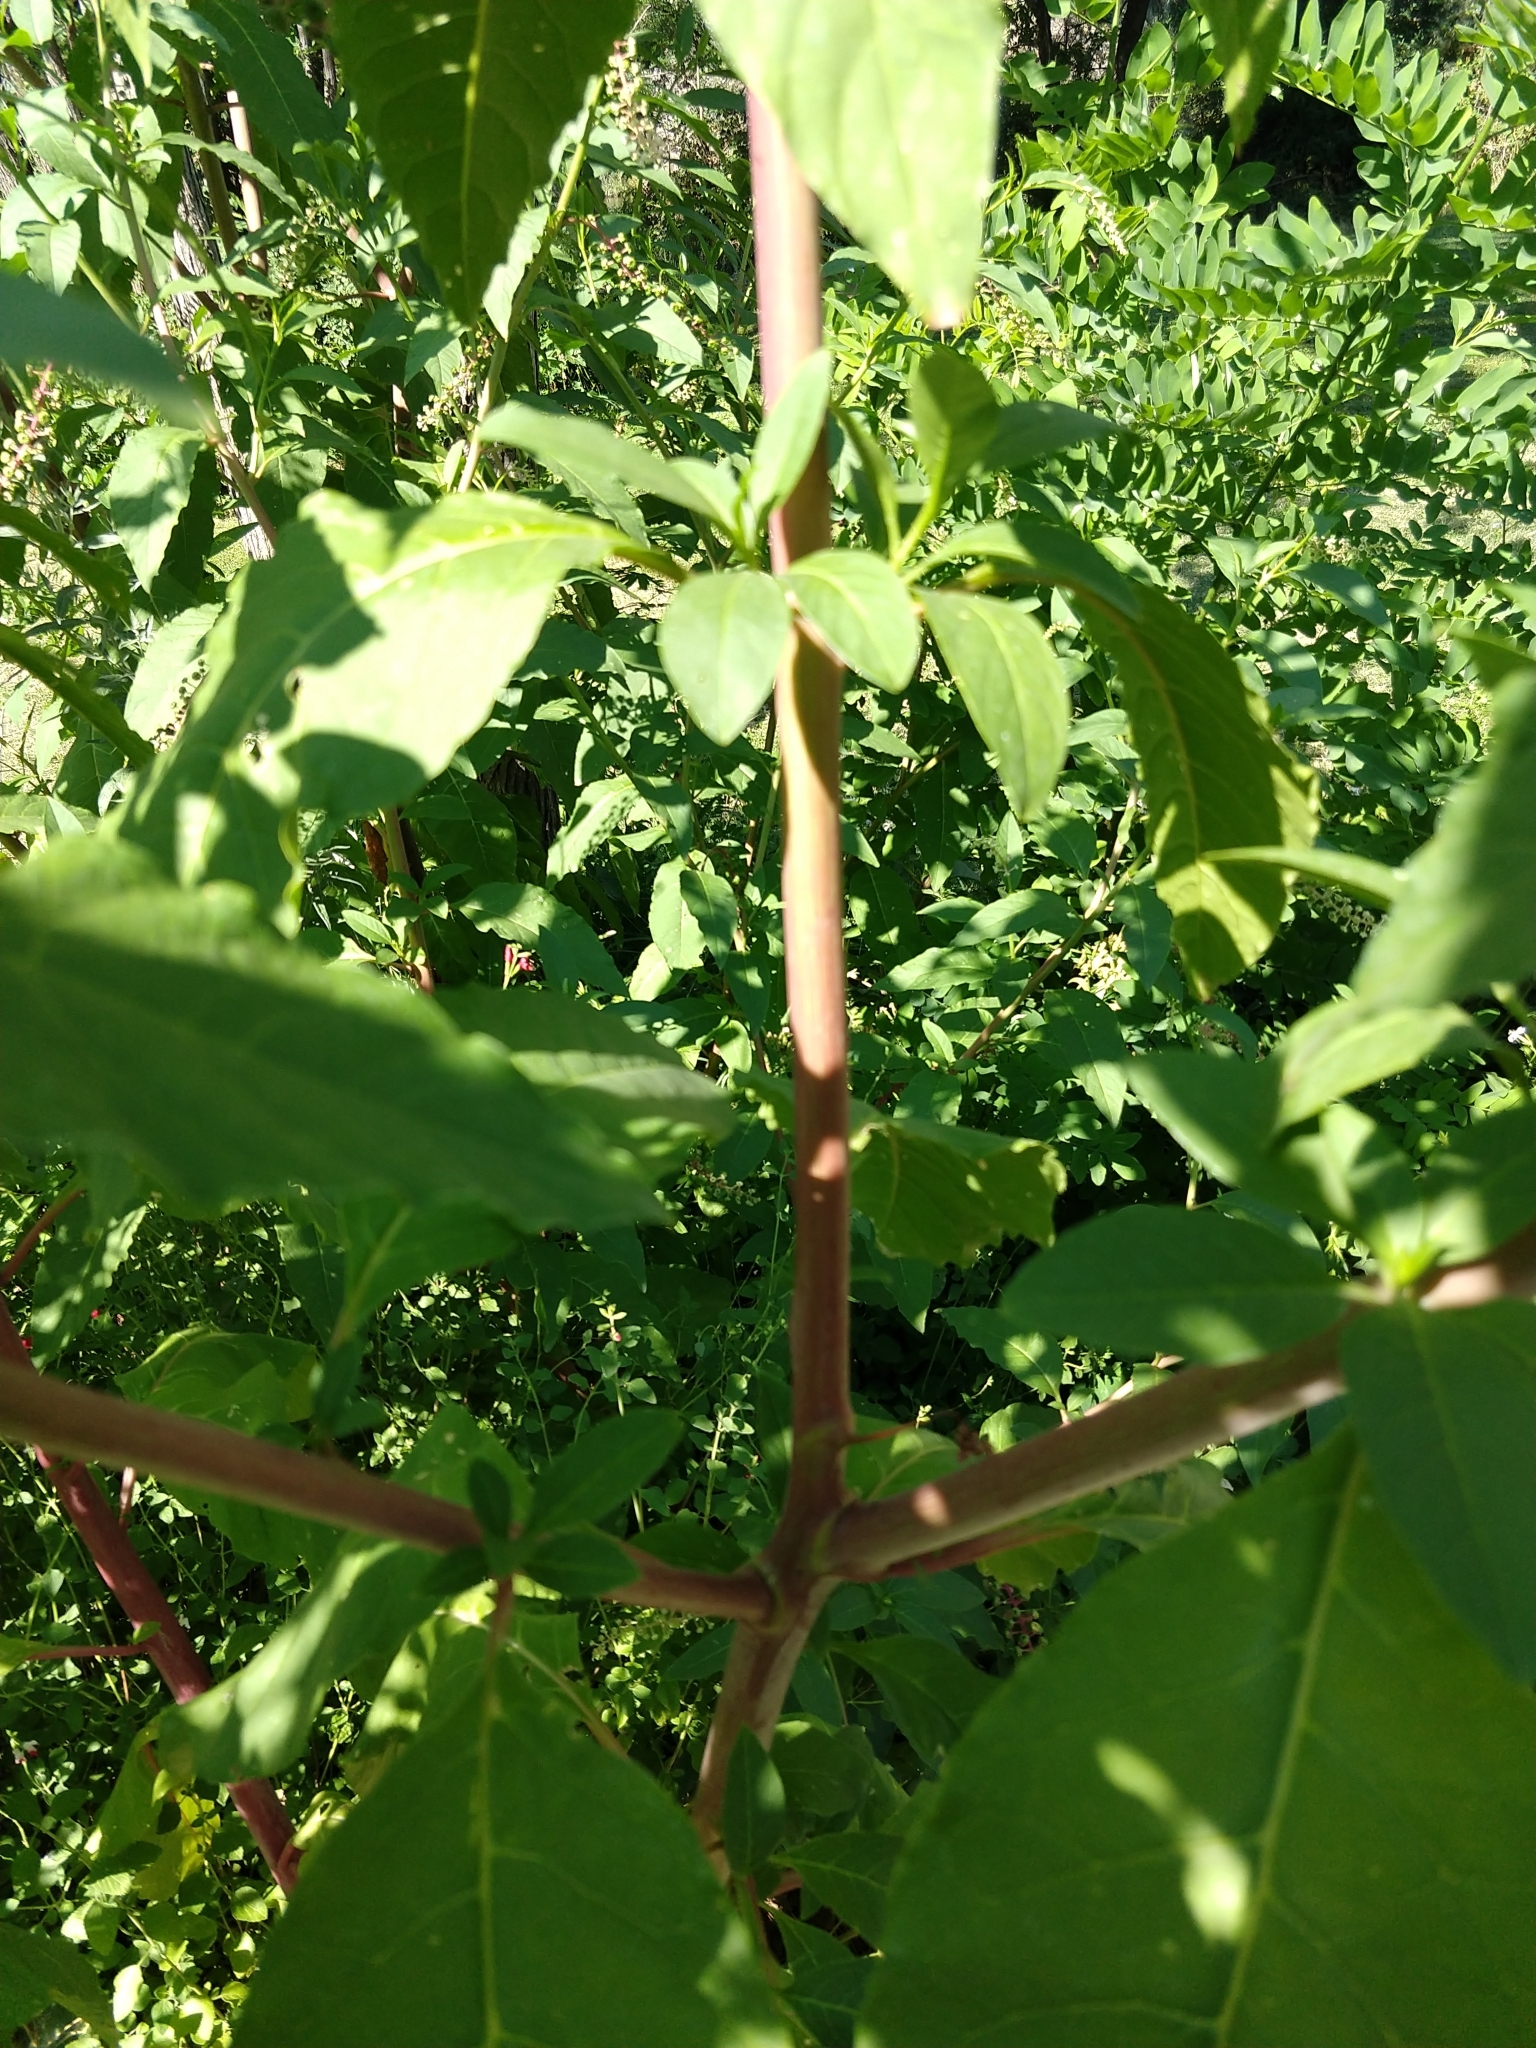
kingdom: Plantae
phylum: Tracheophyta
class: Magnoliopsida
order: Caryophyllales
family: Phytolaccaceae
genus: Phytolacca
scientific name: Phytolacca americana
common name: American pokeweed
